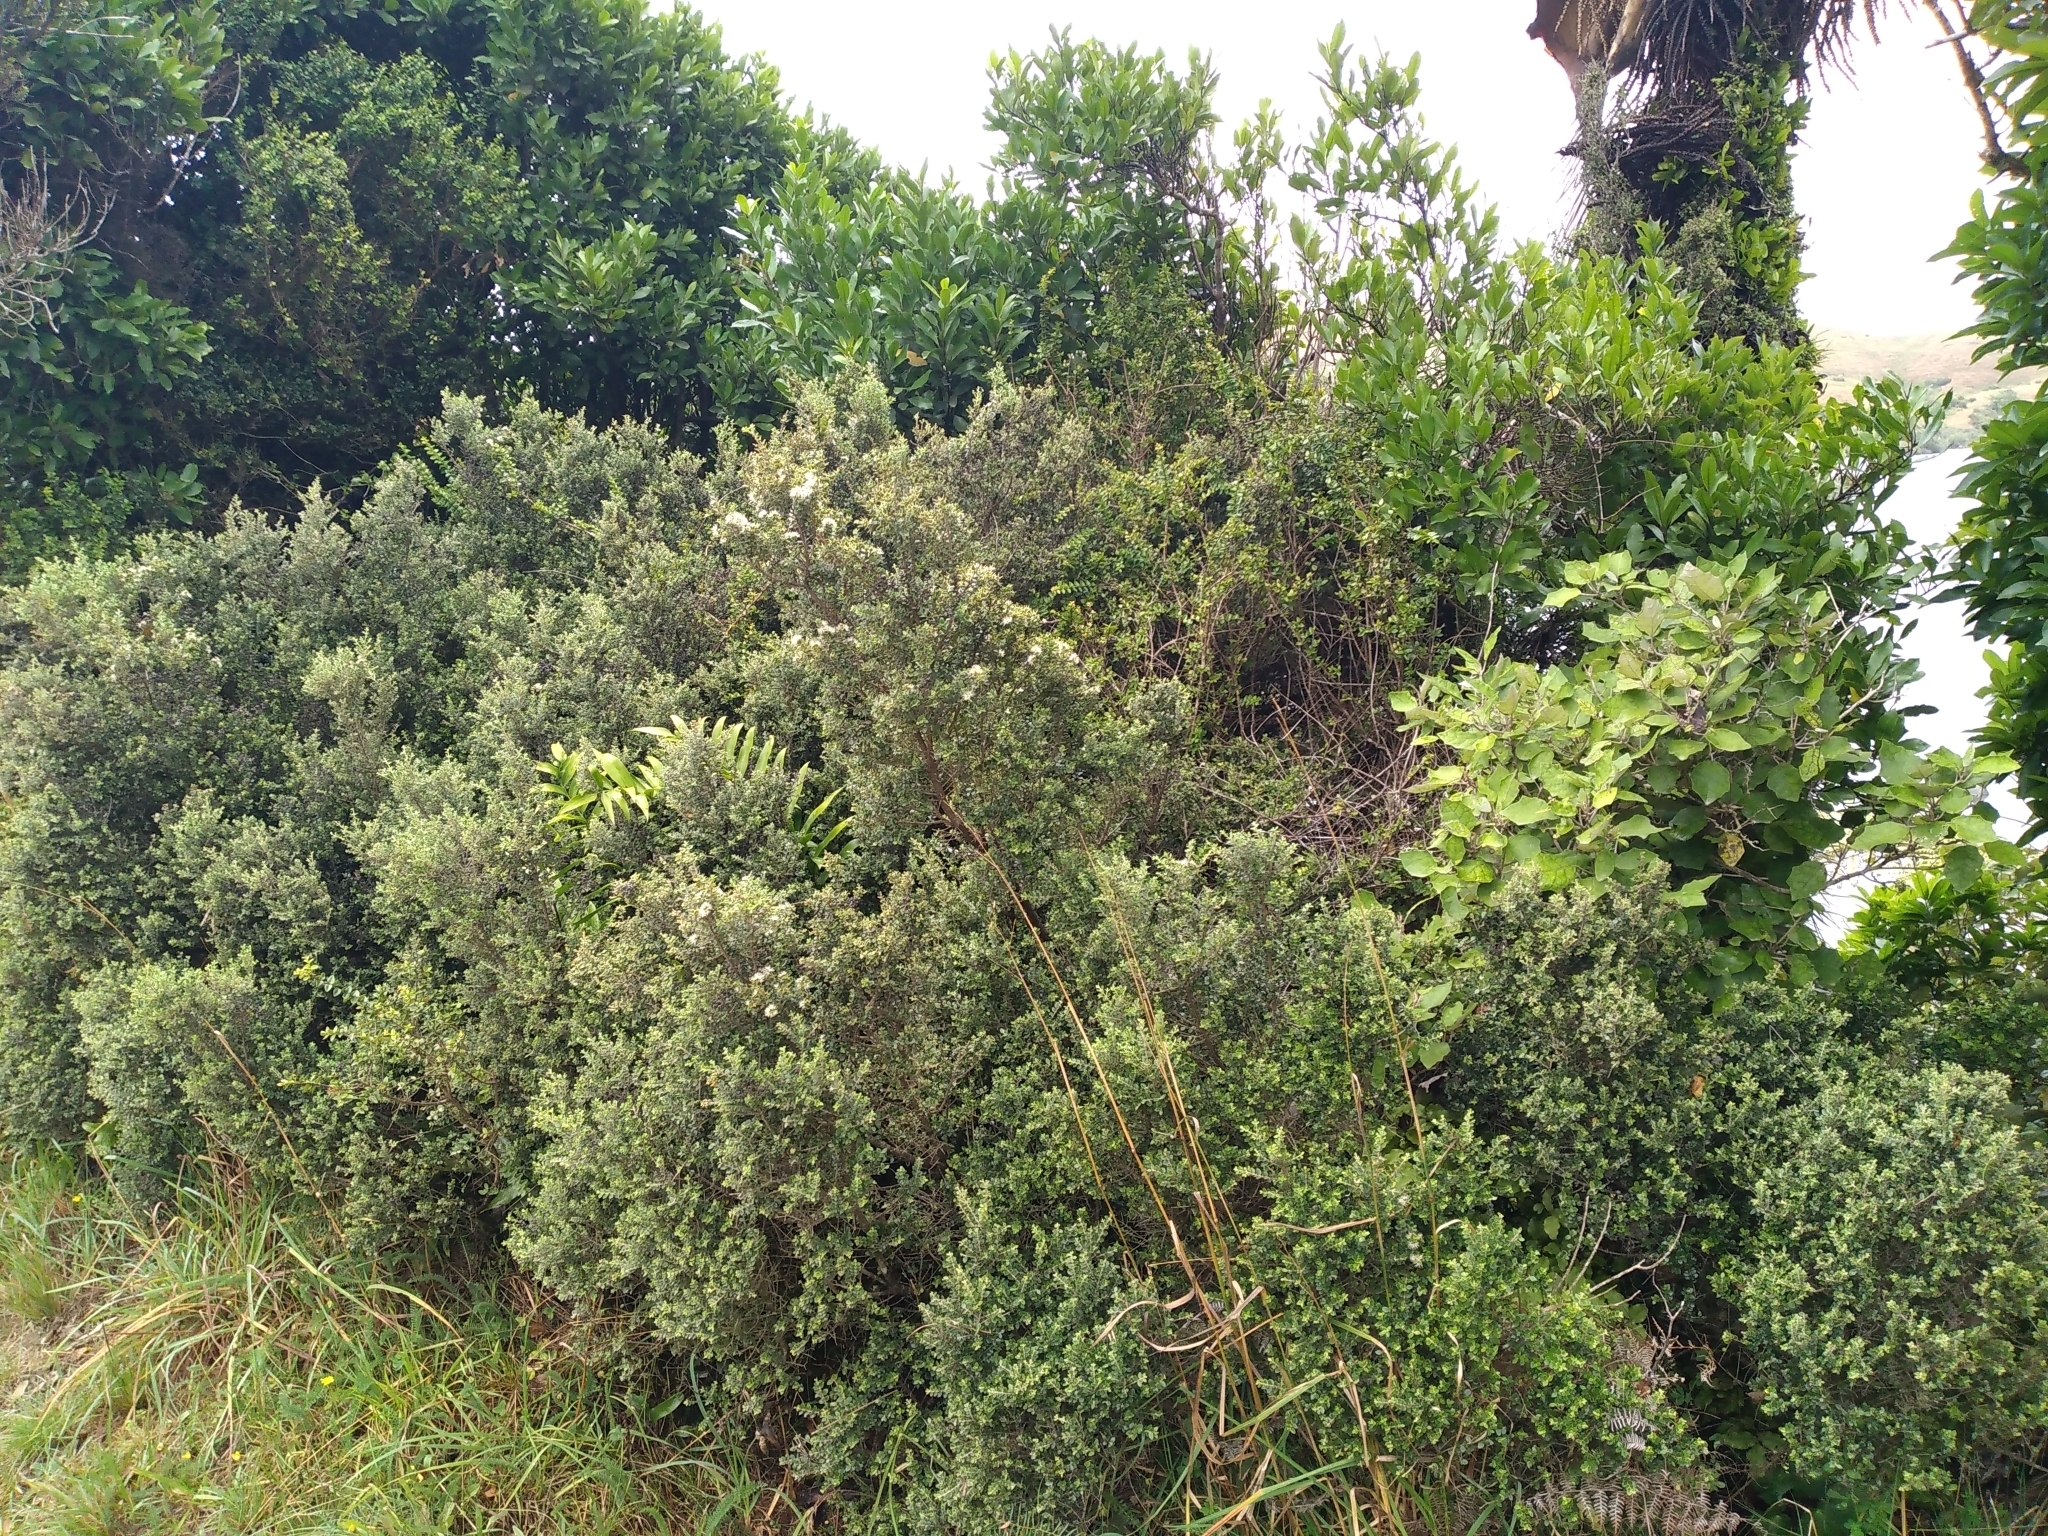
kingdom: Plantae
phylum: Tracheophyta
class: Magnoliopsida
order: Myrtales
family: Myrtaceae
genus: Metrosideros
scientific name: Metrosideros perforata
